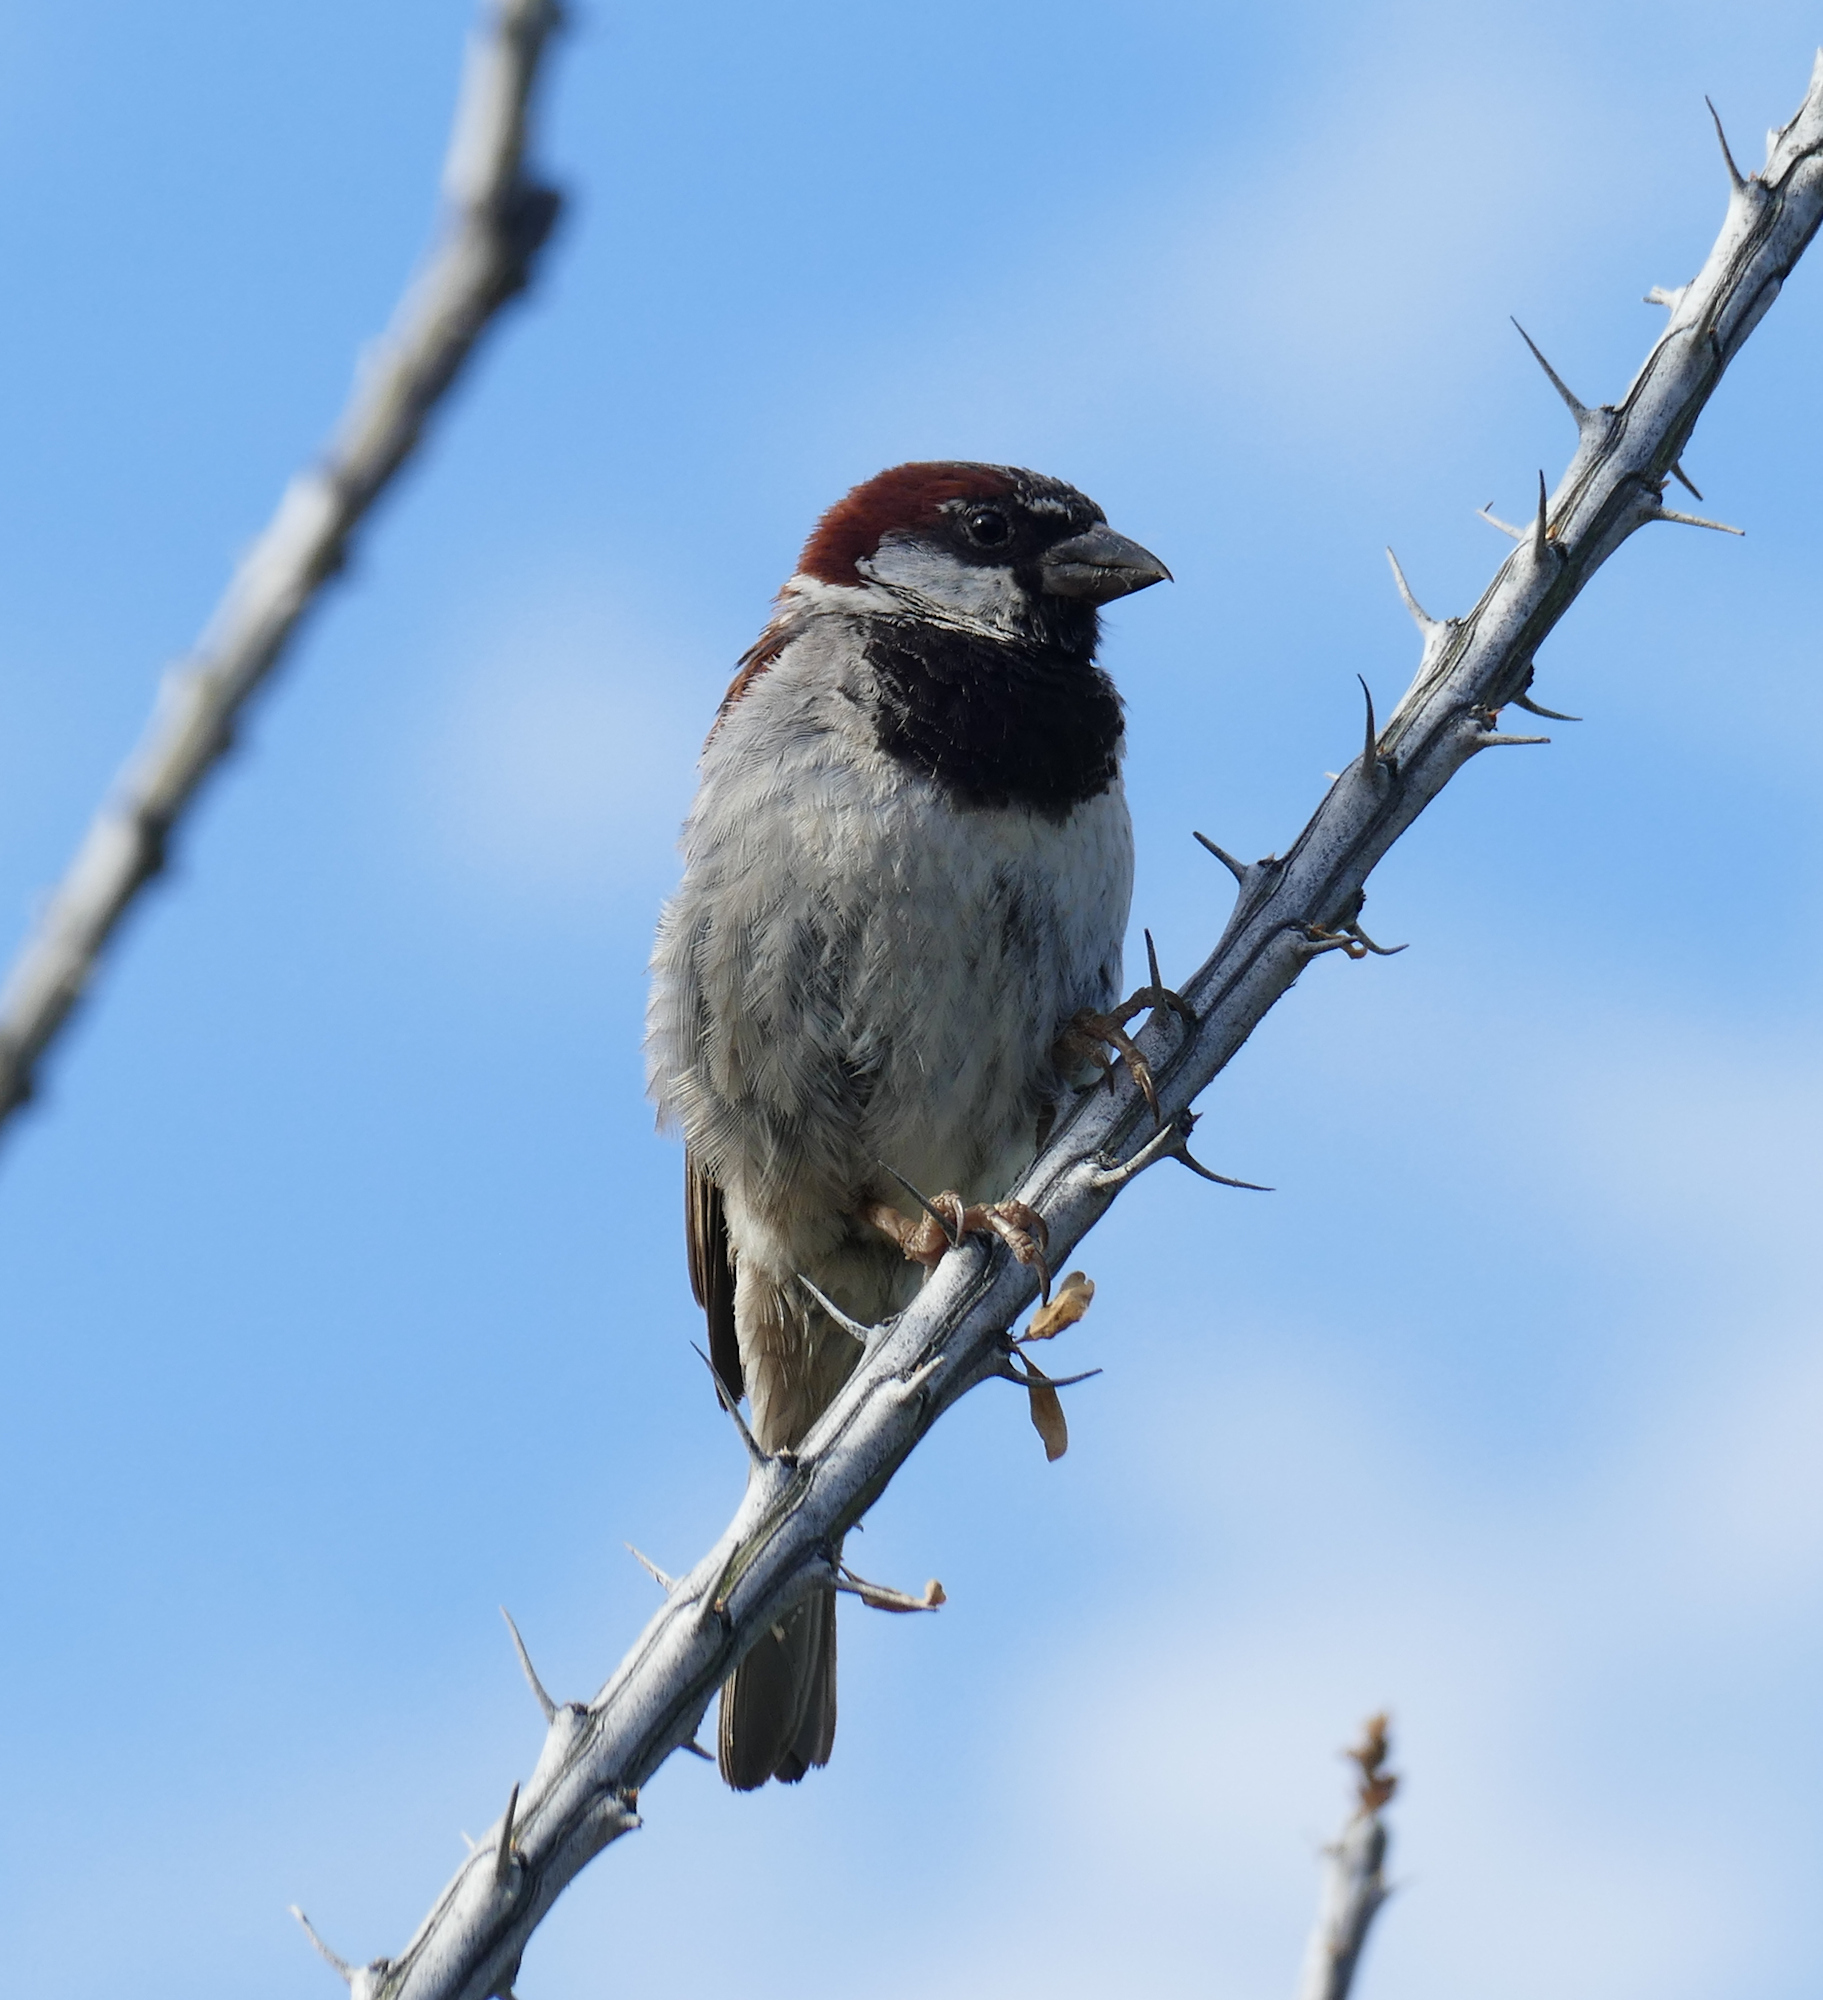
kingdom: Animalia
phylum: Chordata
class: Aves
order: Passeriformes
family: Passeridae
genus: Passer
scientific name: Passer domesticus
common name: House sparrow
